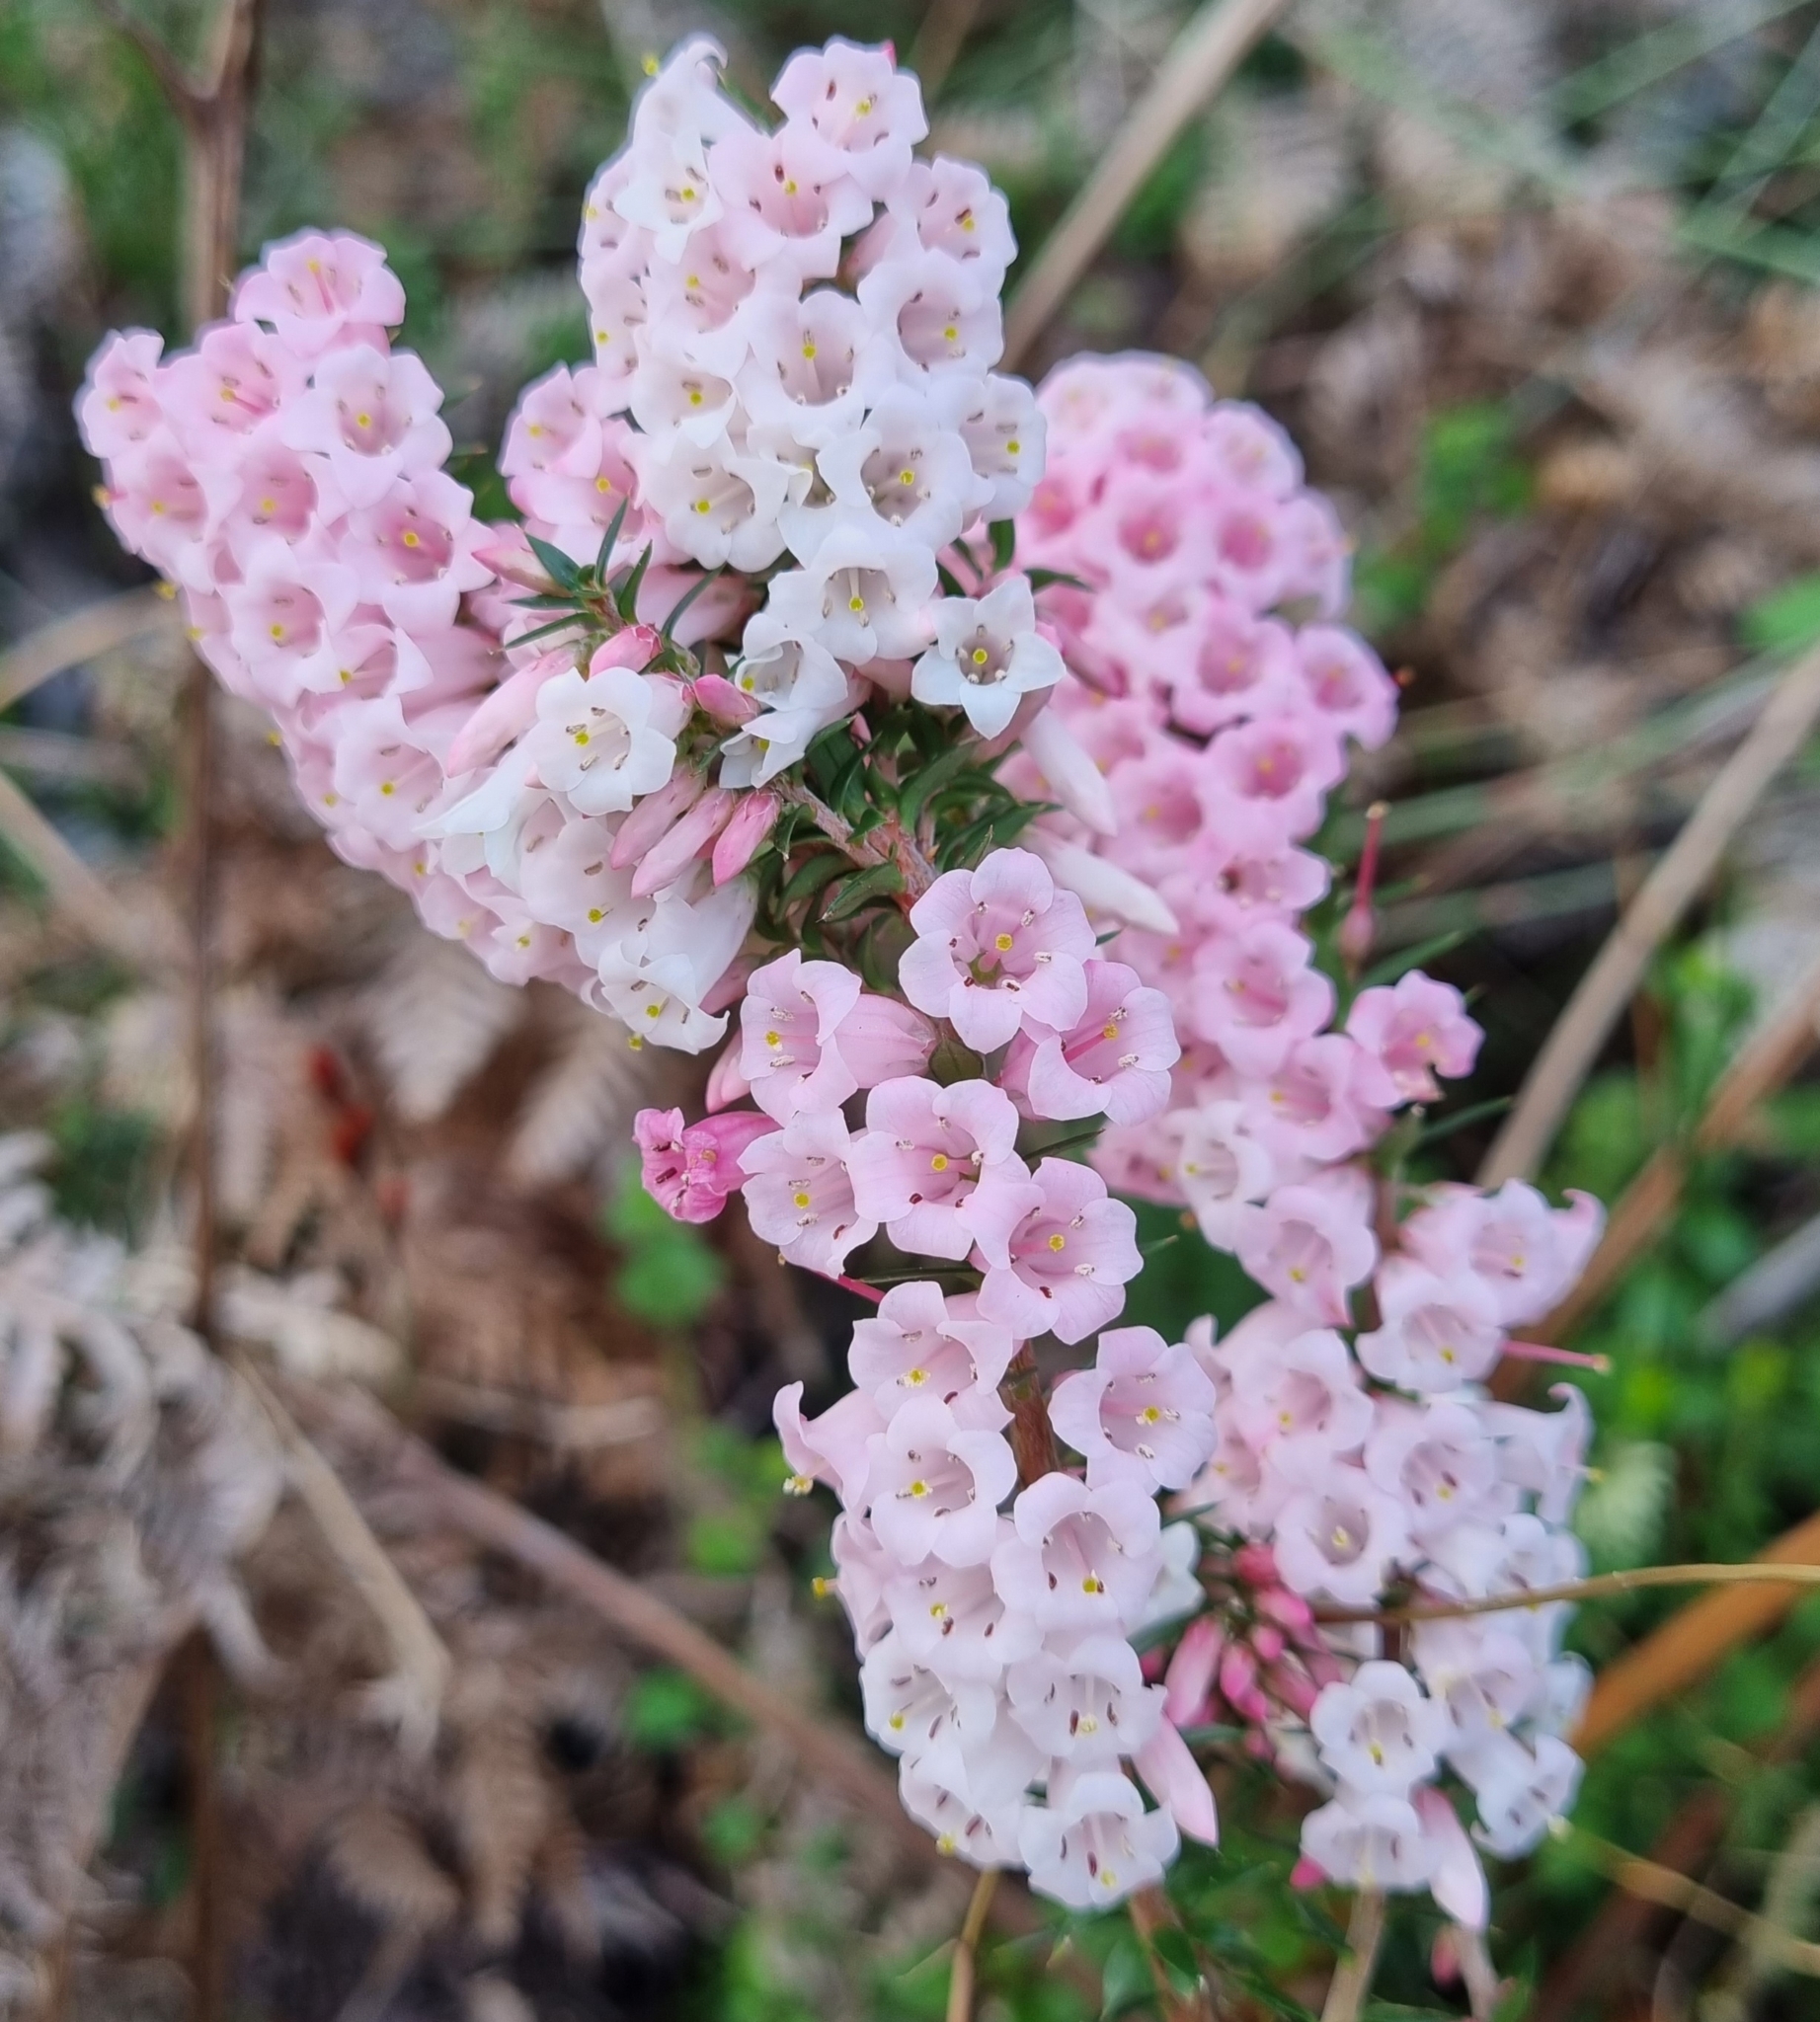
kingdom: Plantae
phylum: Tracheophyta
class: Magnoliopsida
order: Ericales
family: Ericaceae
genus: Epacris
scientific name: Epacris impressa
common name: Common-heath
